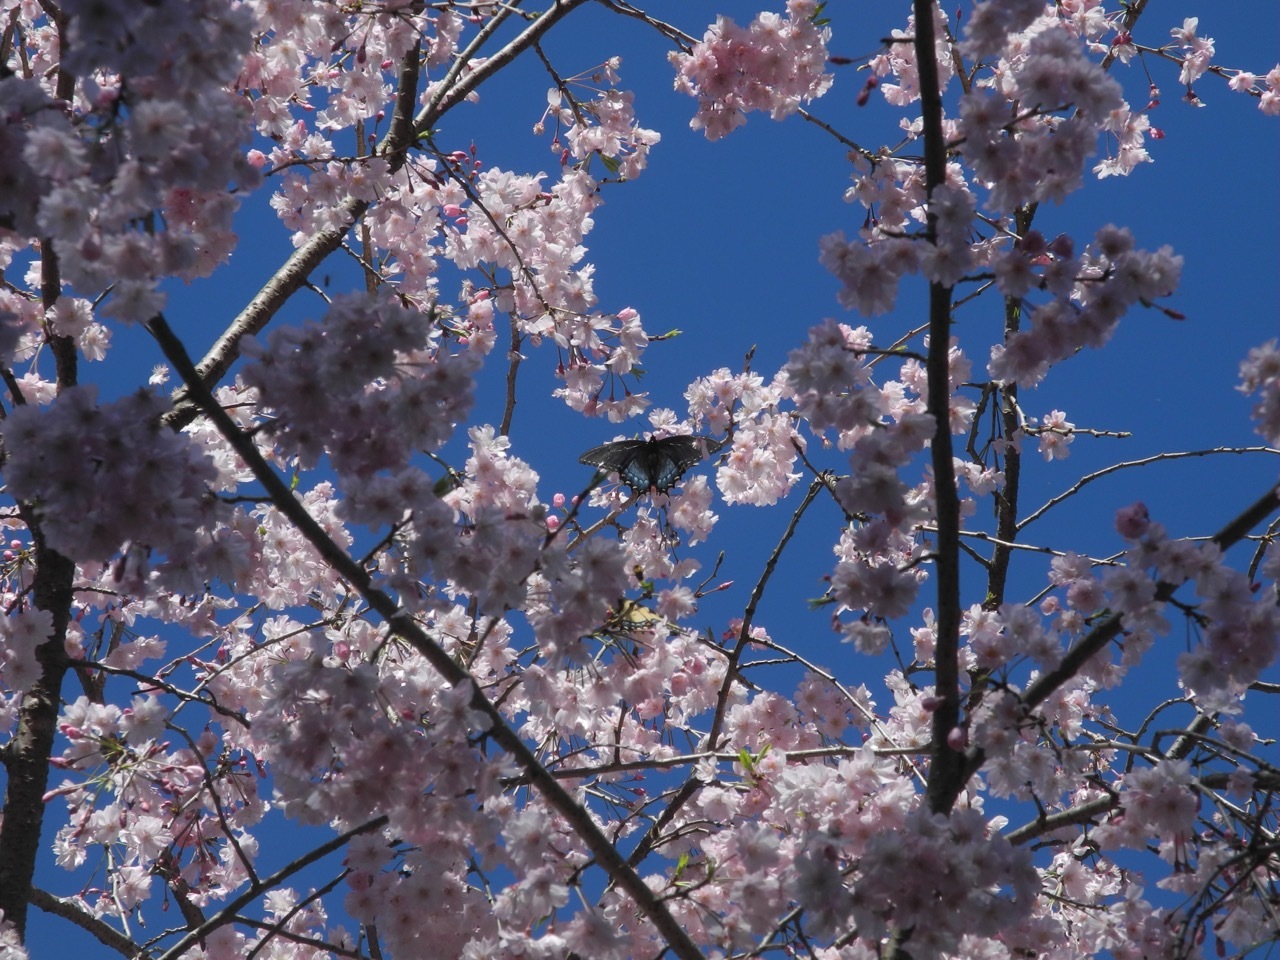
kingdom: Animalia
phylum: Arthropoda
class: Insecta
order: Lepidoptera
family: Papilionidae
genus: Papilio
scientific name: Papilio glaucus
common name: Tiger swallowtail
